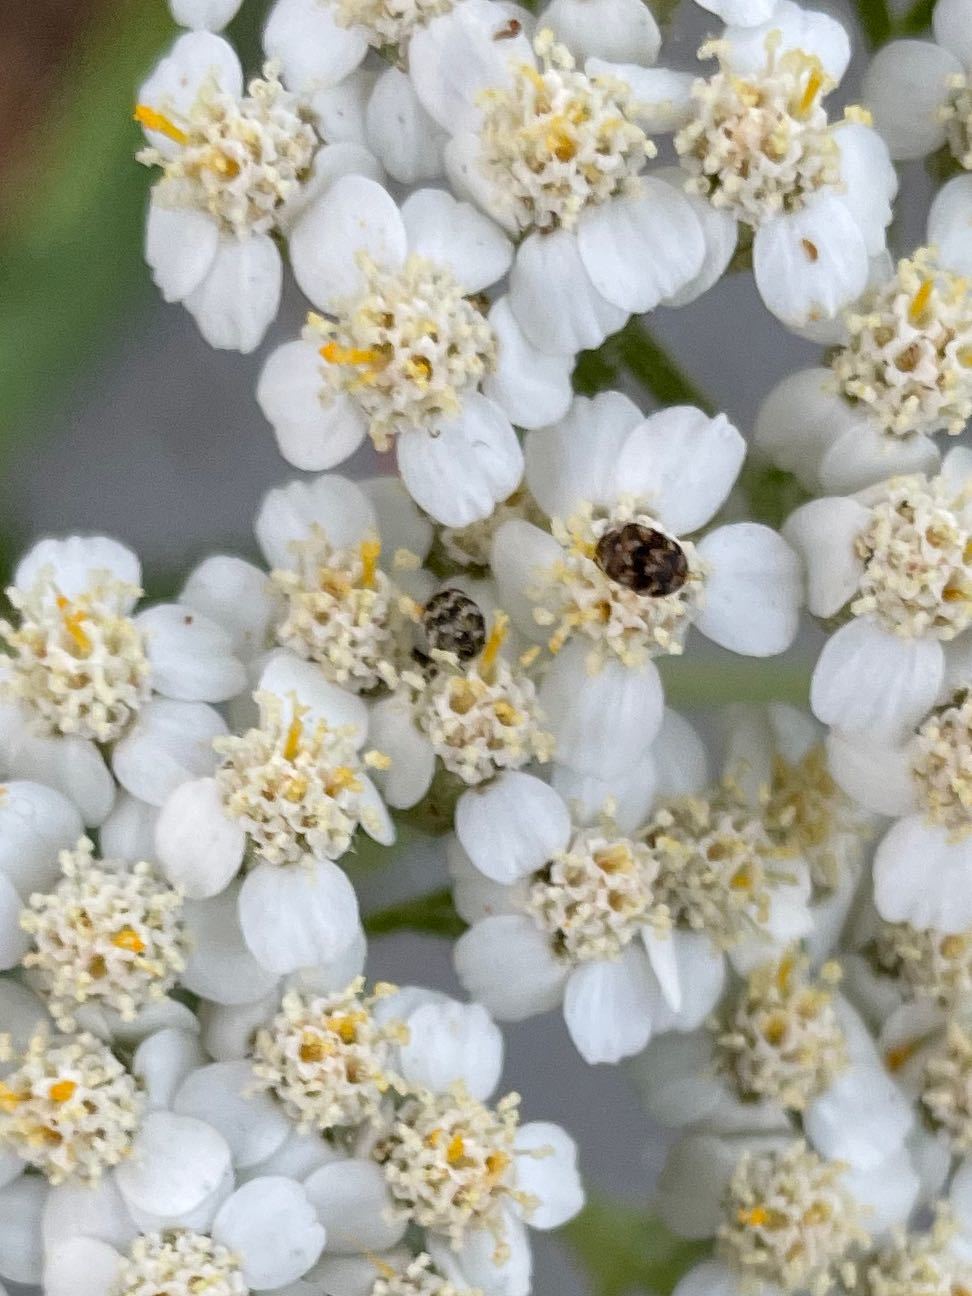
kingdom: Animalia
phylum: Arthropoda
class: Insecta
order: Coleoptera
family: Dermestidae
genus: Anthrenus
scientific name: Anthrenus verbasci
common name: Varied carpet beetle
